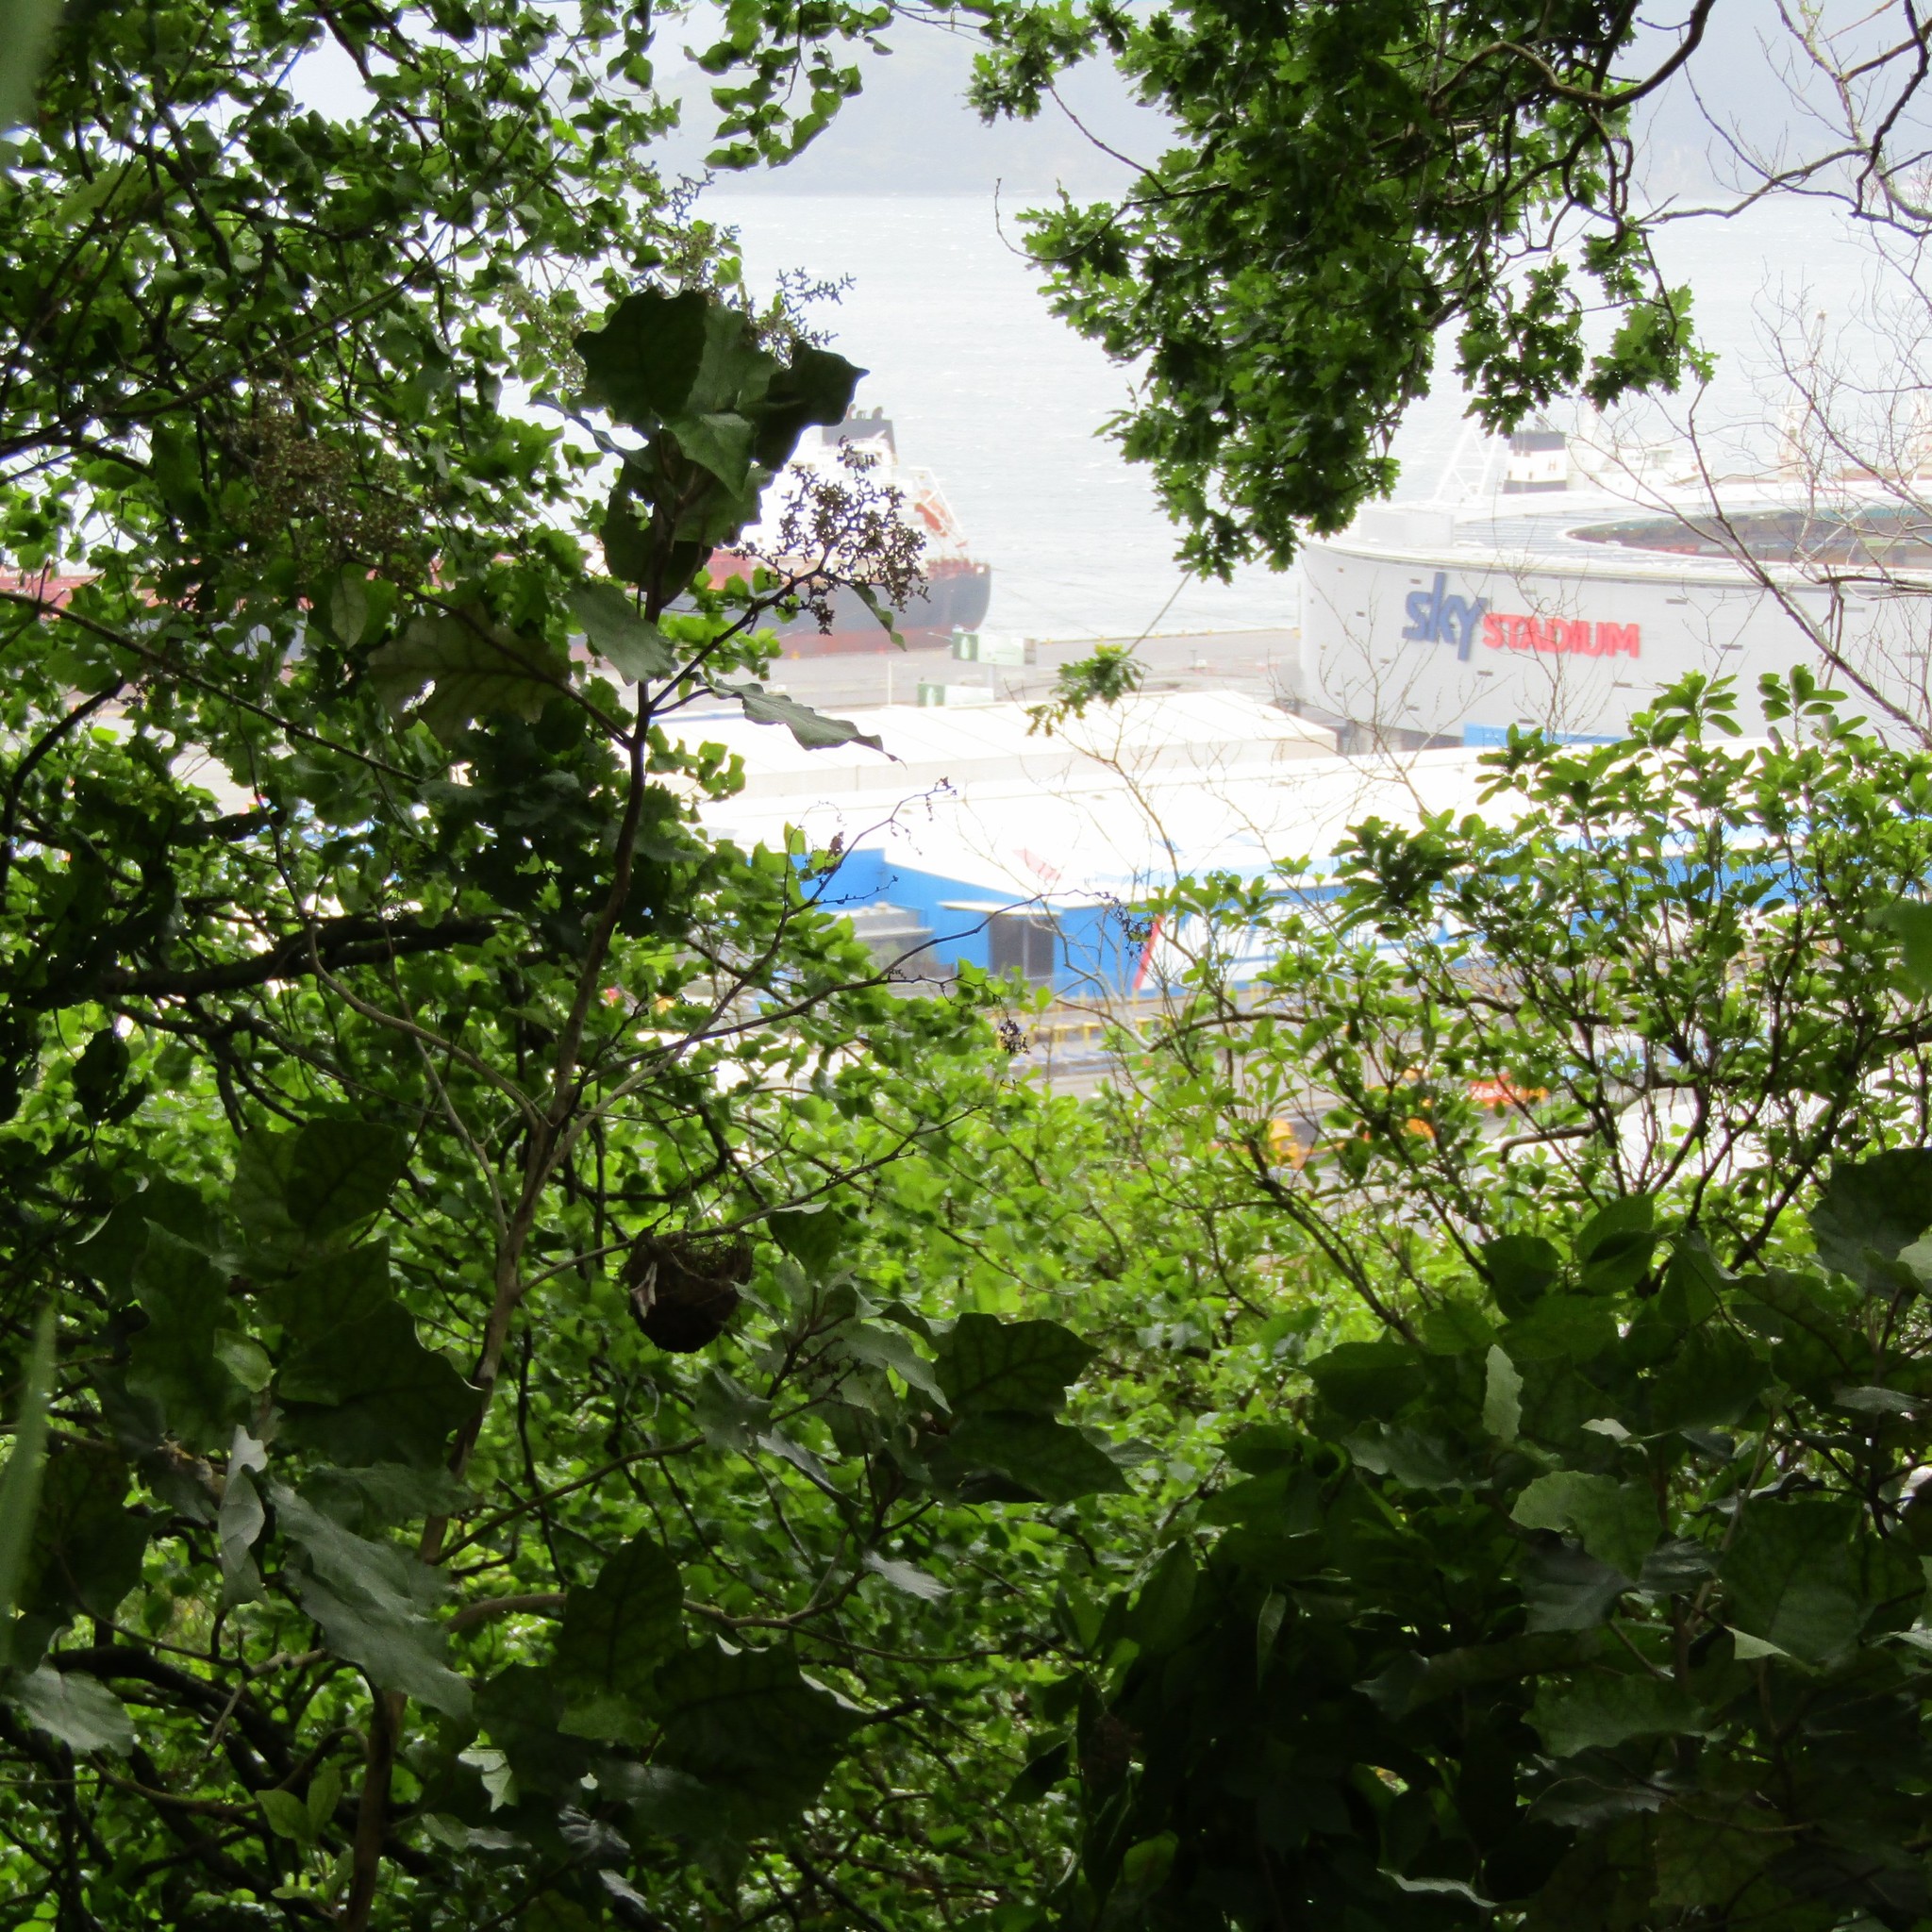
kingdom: Animalia
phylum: Chordata
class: Aves
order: Passeriformes
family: Zosteropidae
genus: Zosterops
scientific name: Zosterops lateralis
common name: Silvereye
